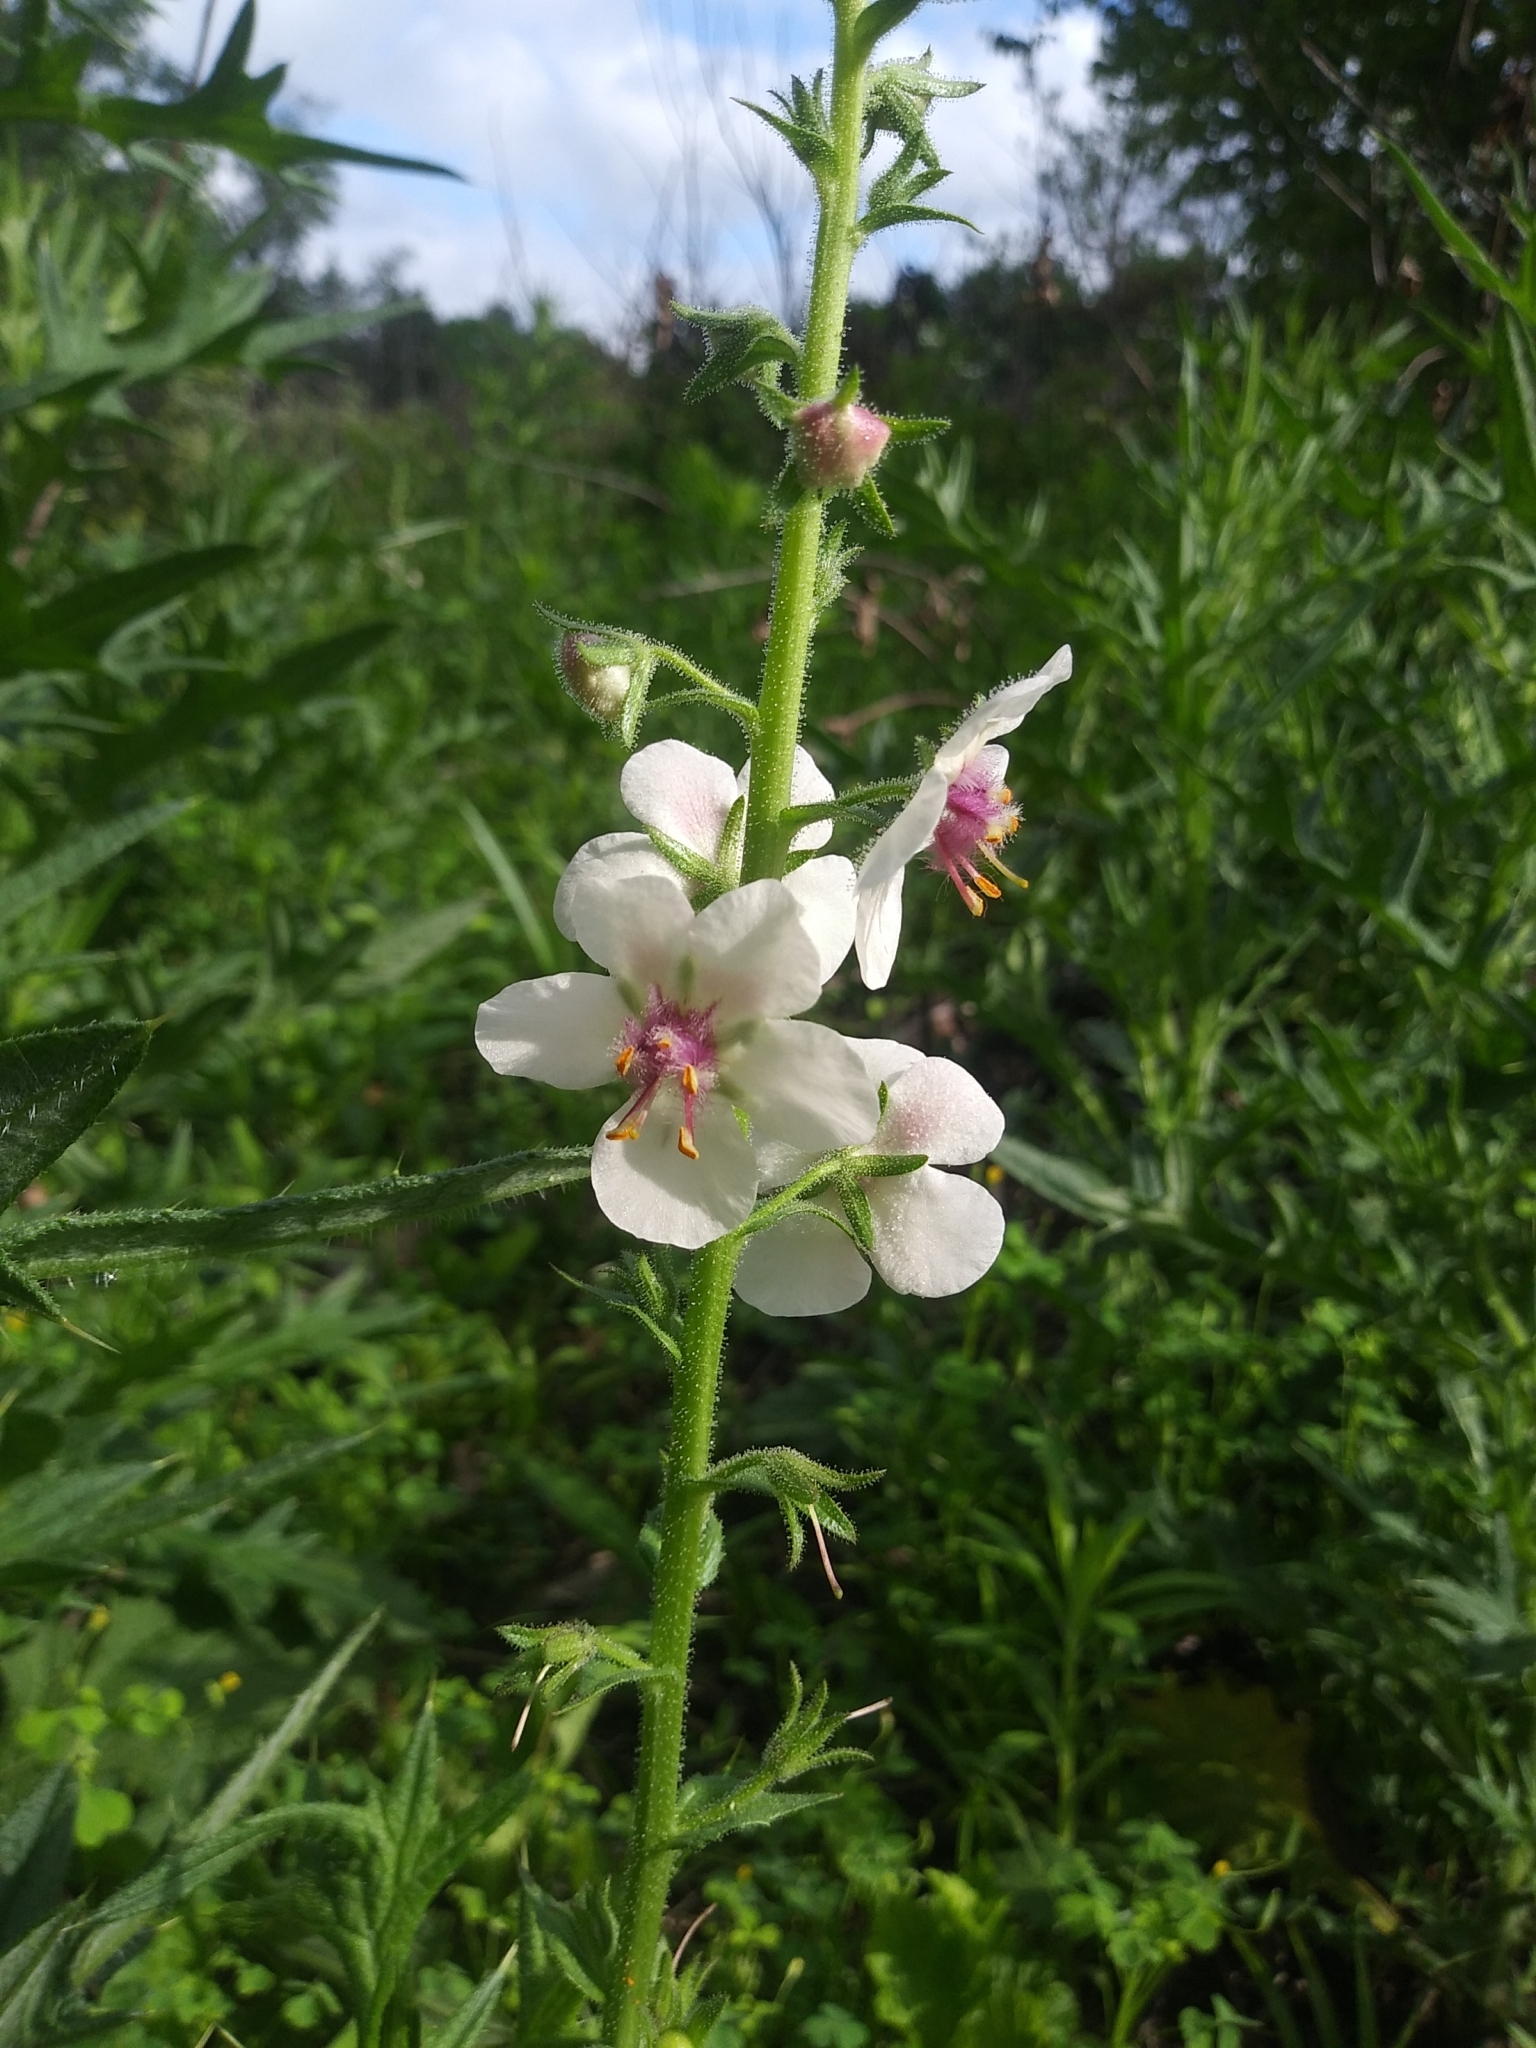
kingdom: Plantae
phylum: Tracheophyta
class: Magnoliopsida
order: Lamiales
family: Scrophulariaceae
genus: Verbascum
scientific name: Verbascum blattaria
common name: Moth mullein
